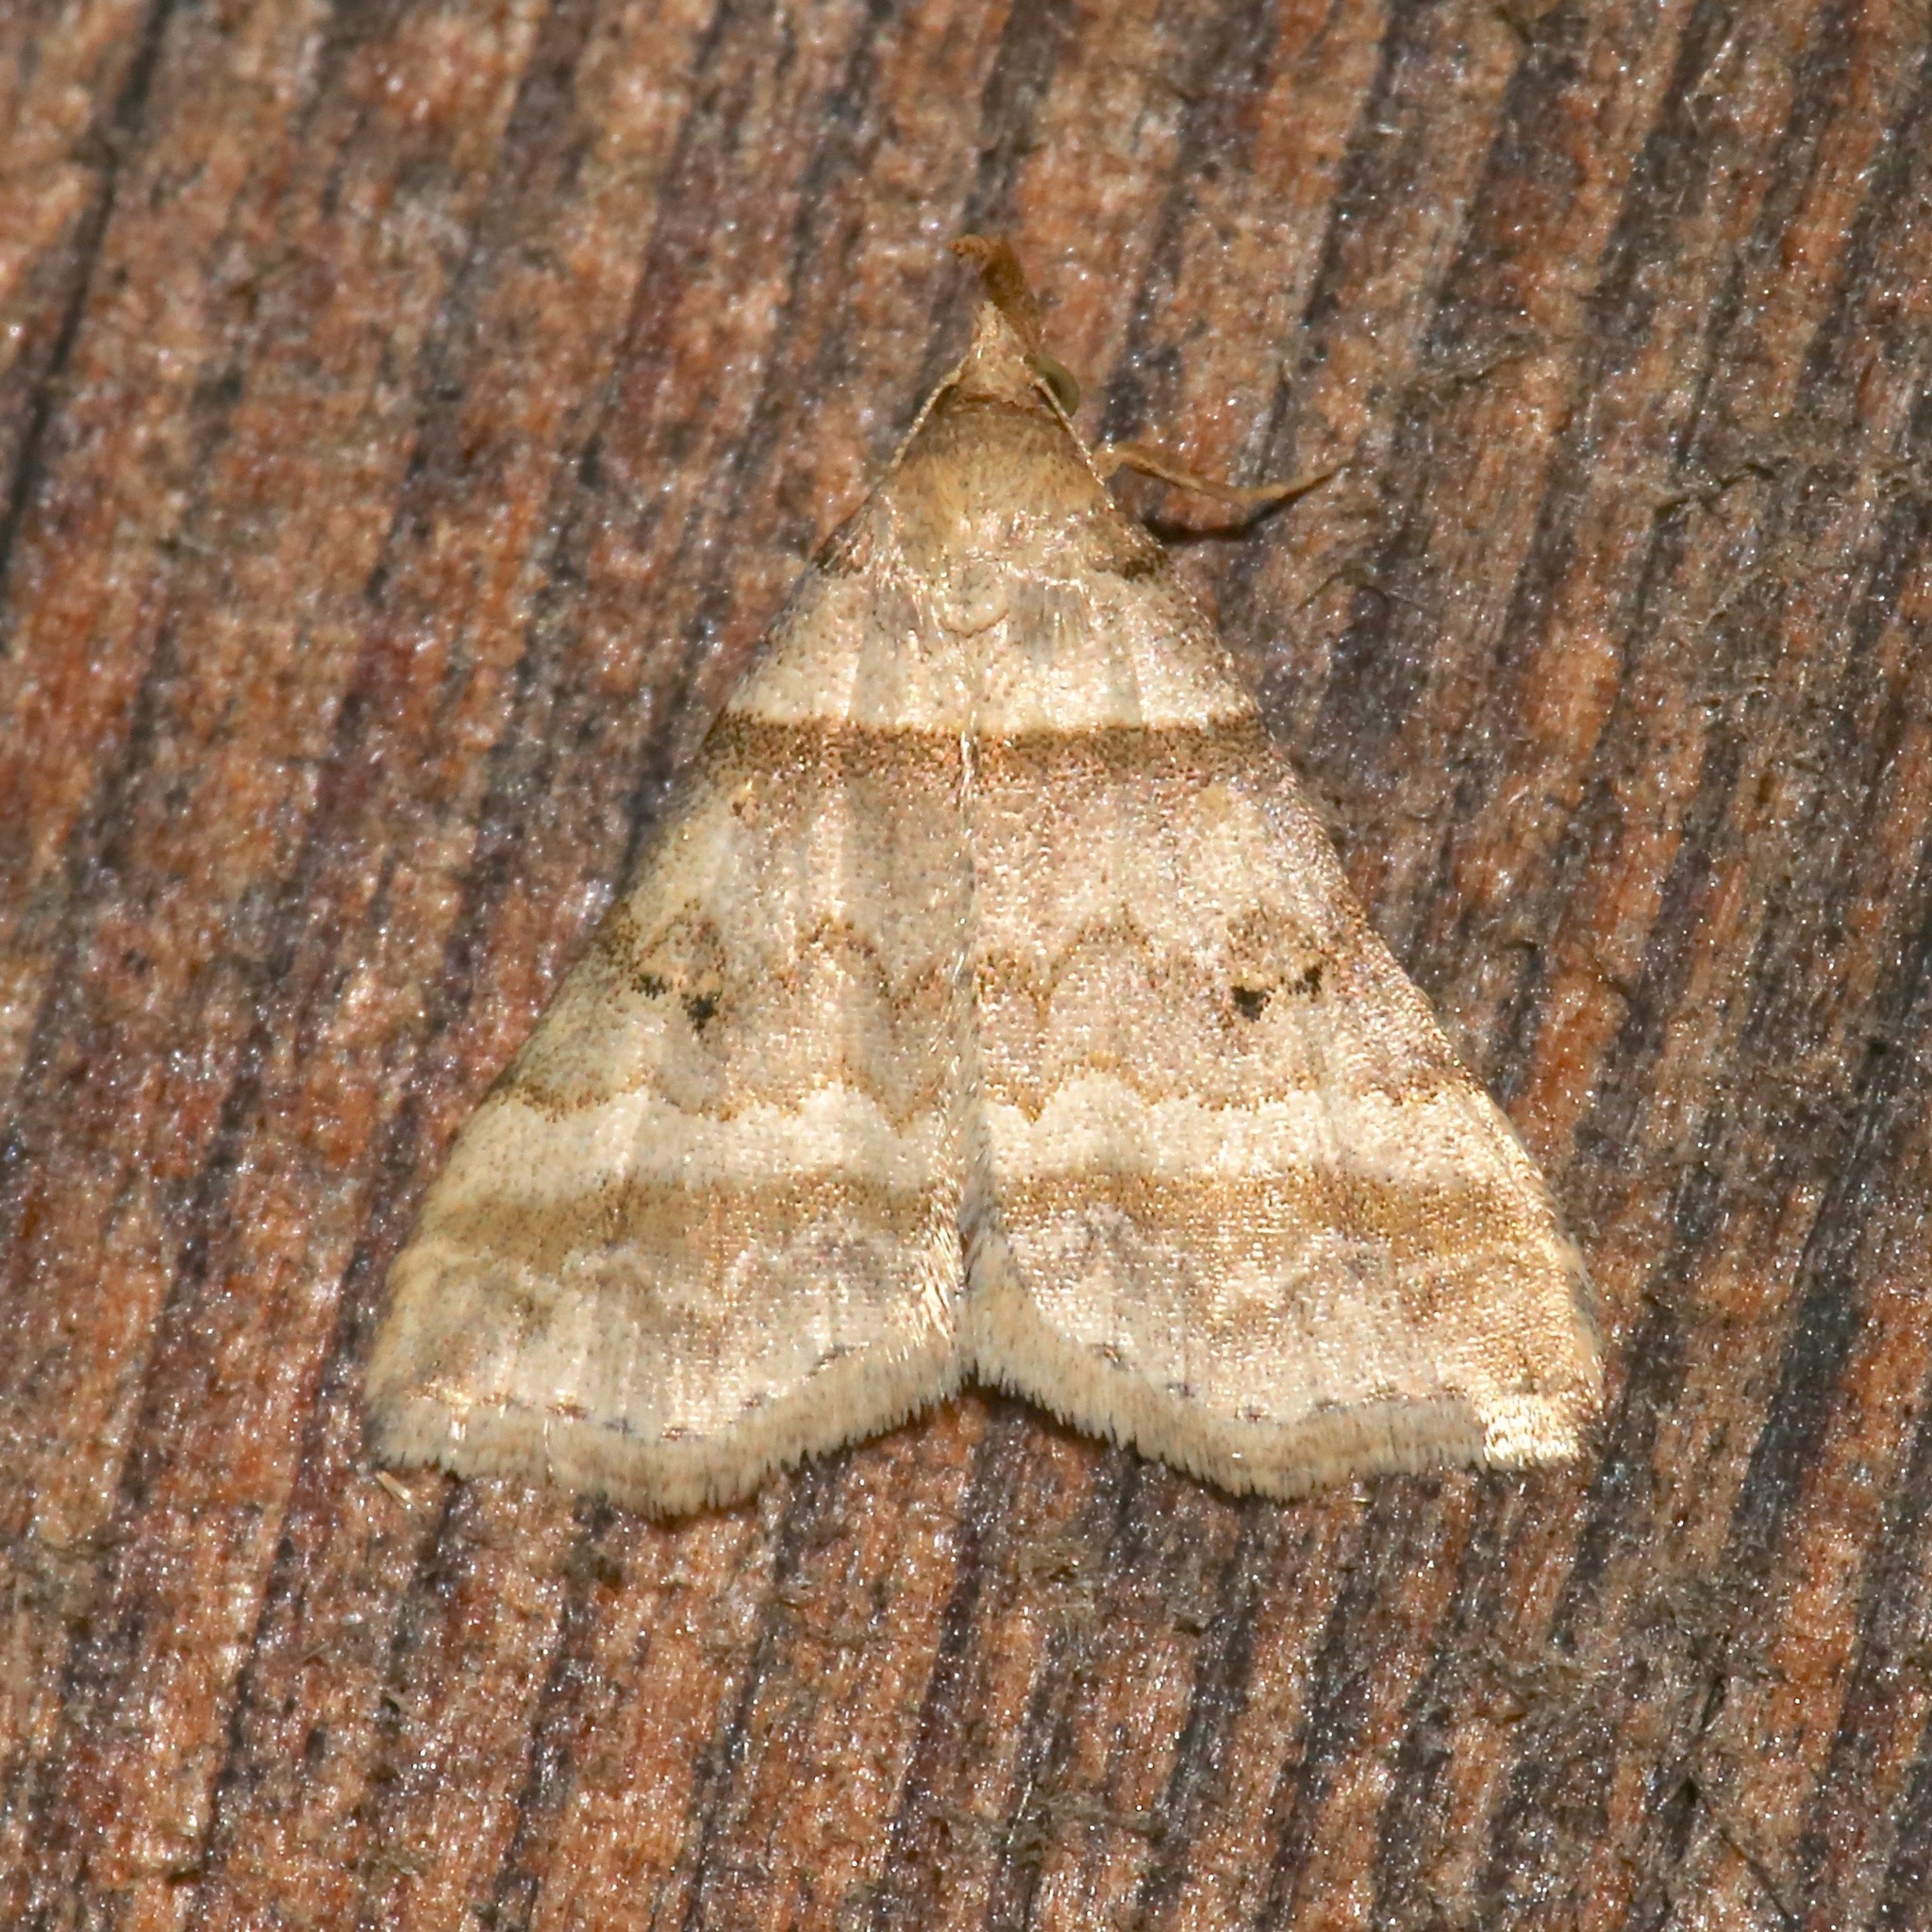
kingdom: Animalia
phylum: Arthropoda
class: Insecta
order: Lepidoptera
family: Erebidae
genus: Phaeolita
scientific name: Phaeolita pyramusalis
